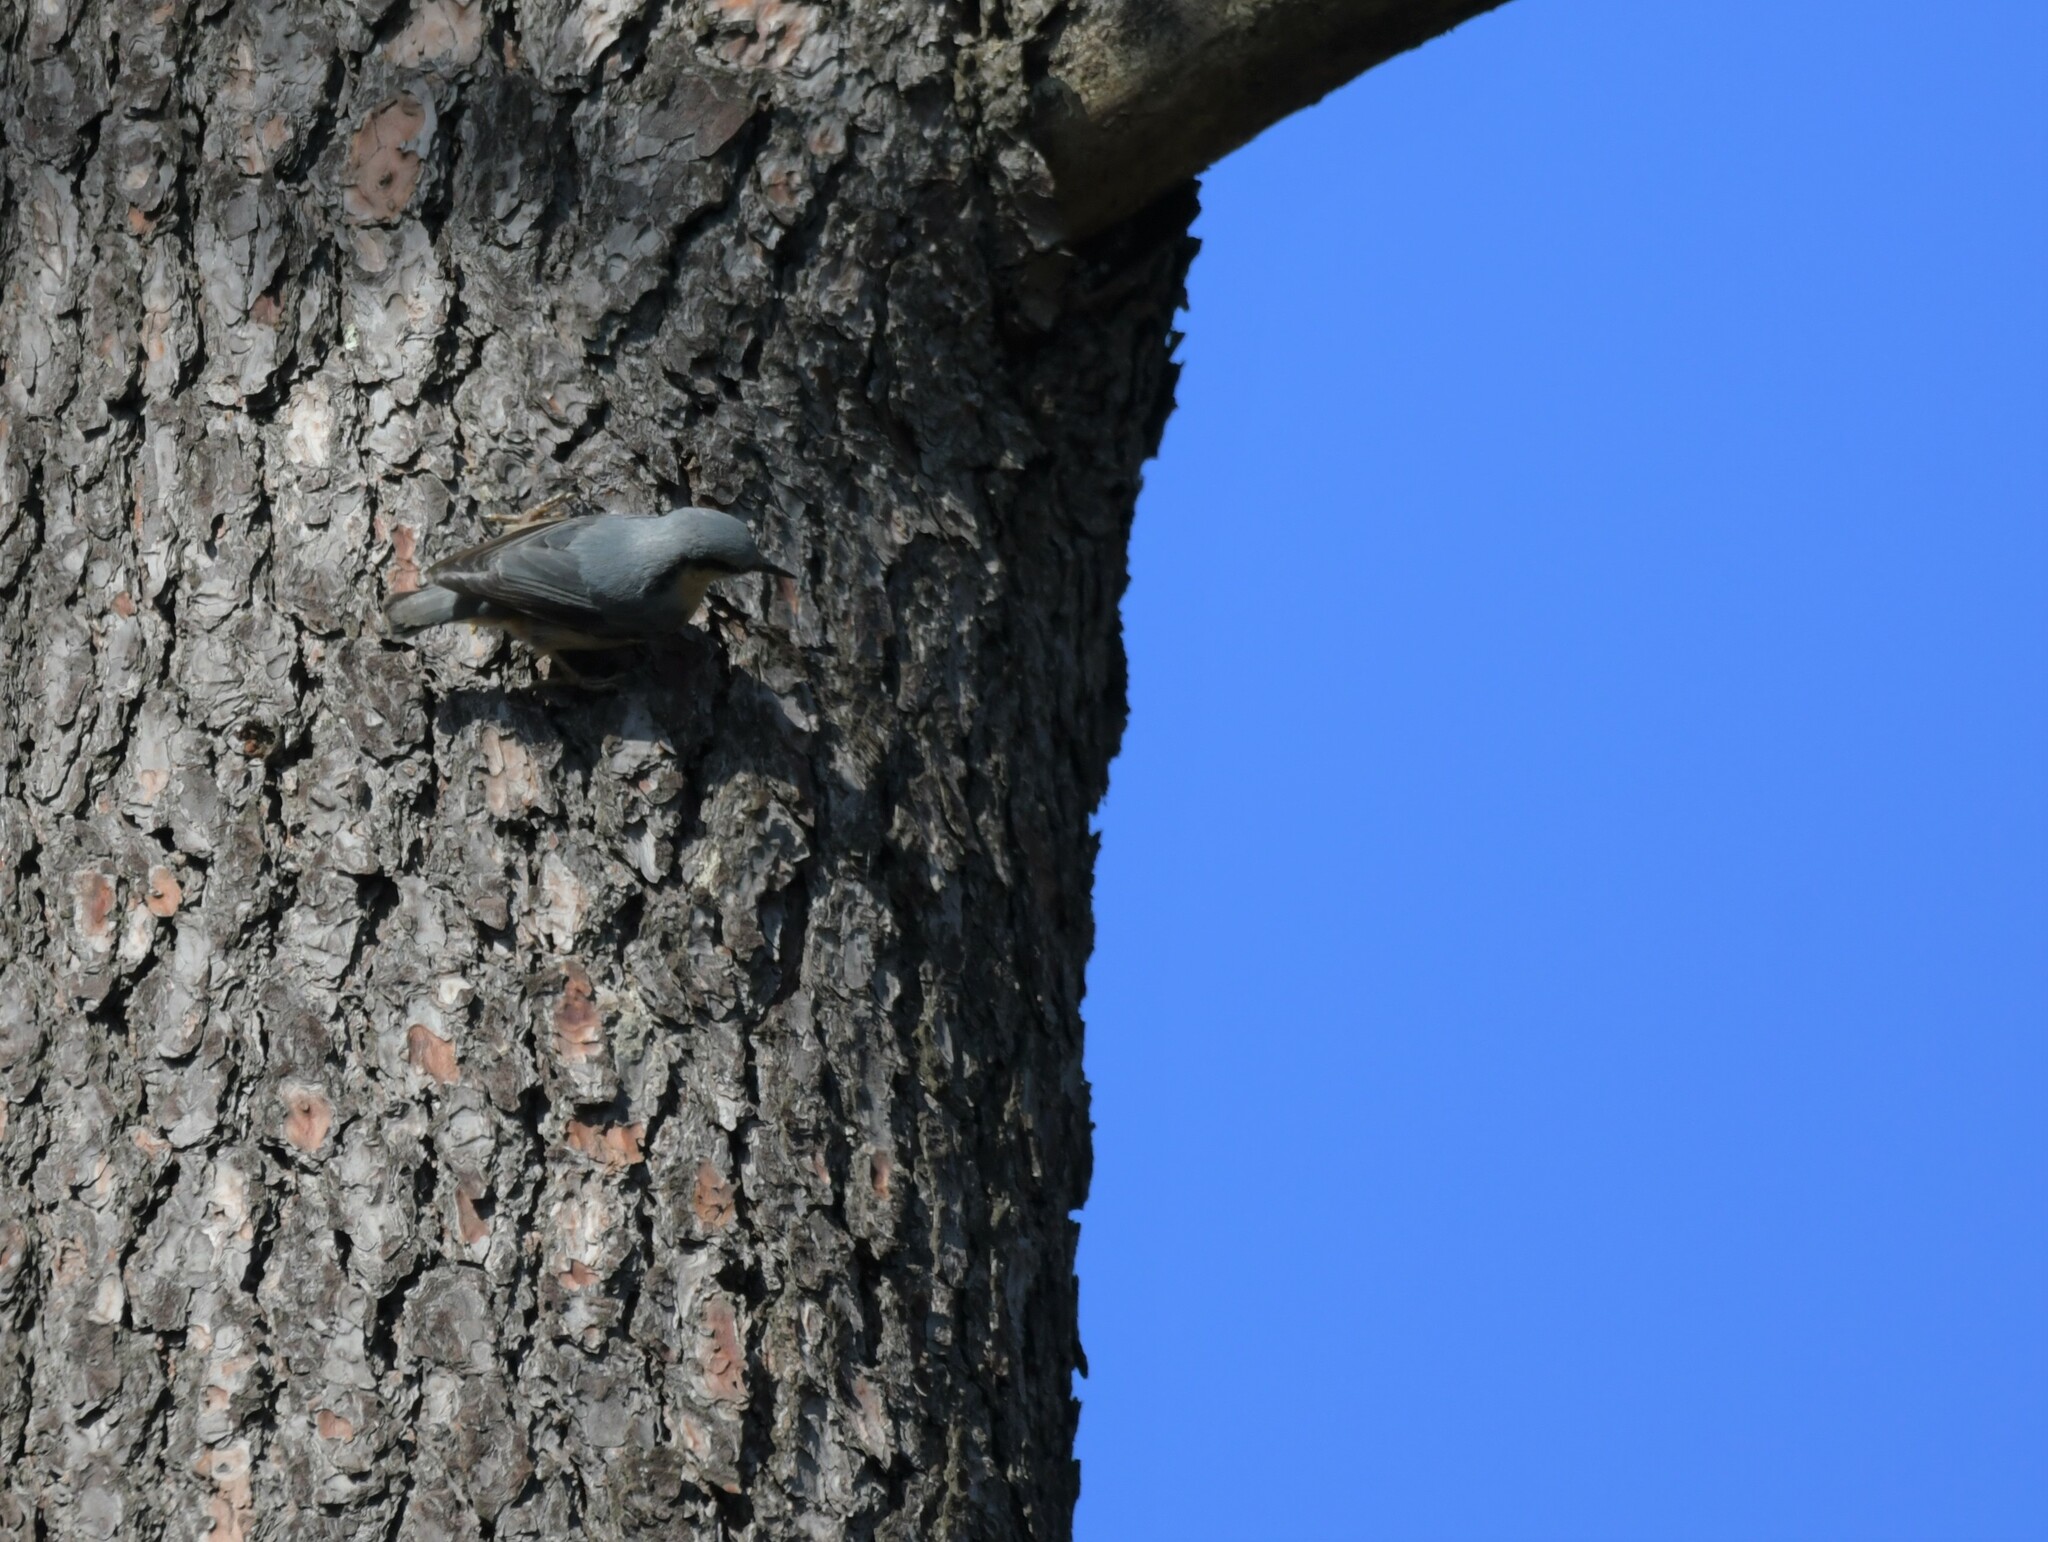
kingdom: Animalia
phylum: Chordata
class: Aves
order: Passeriformes
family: Sittidae
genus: Sitta
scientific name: Sitta europaea
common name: Eurasian nuthatch
